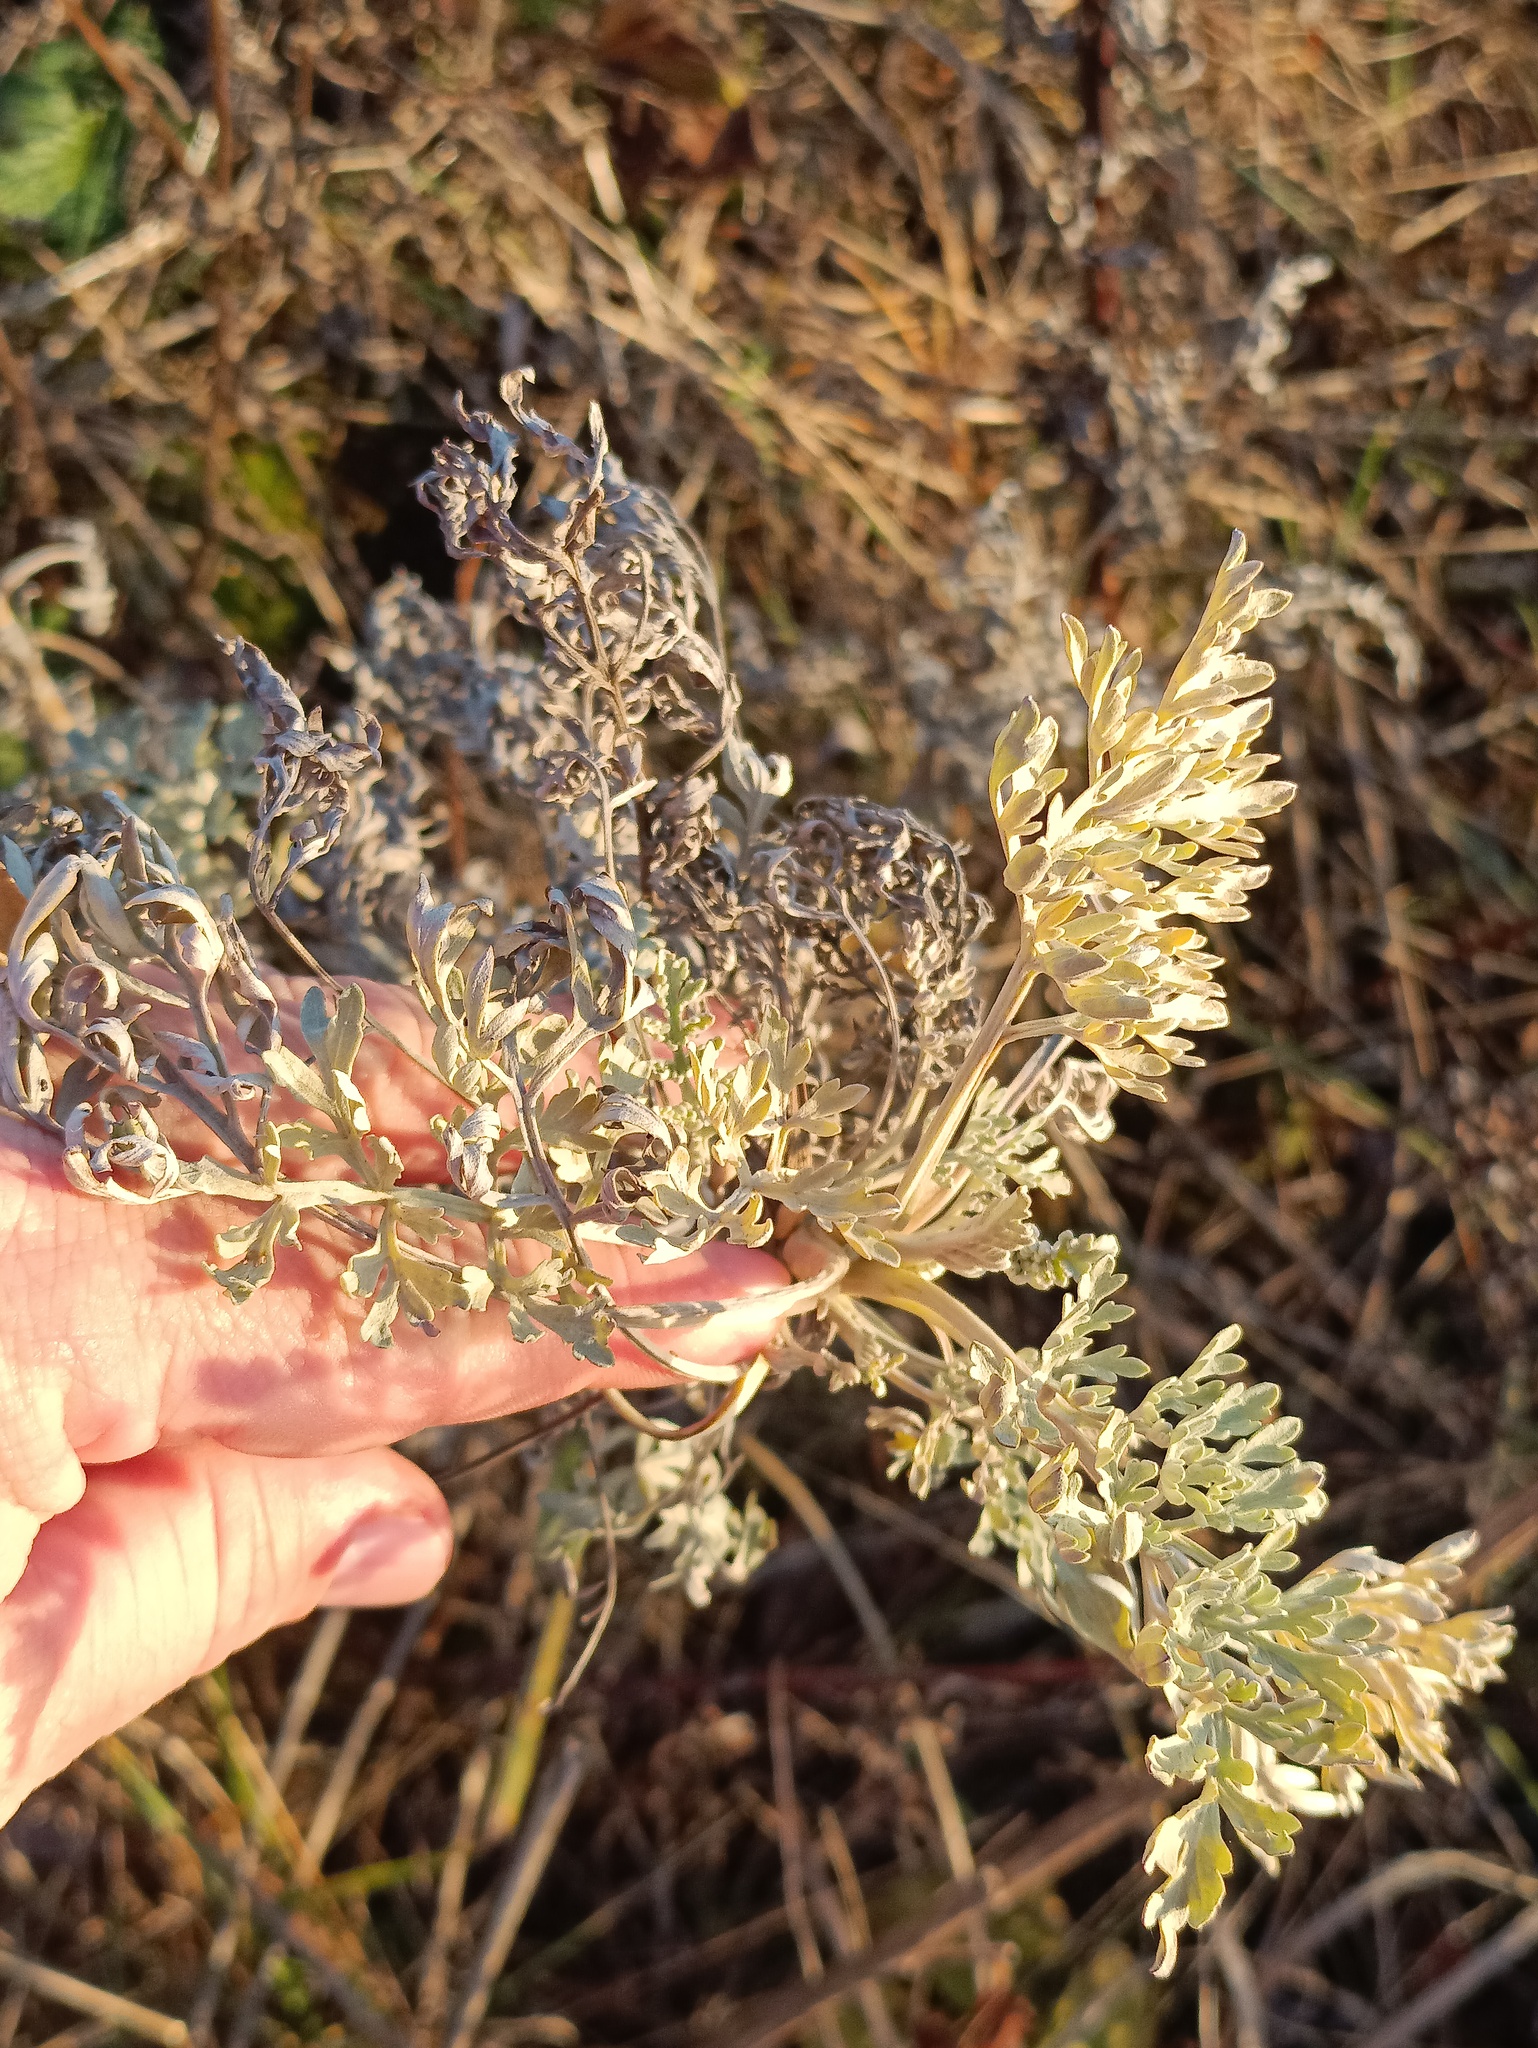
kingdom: Plantae
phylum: Tracheophyta
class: Magnoliopsida
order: Asterales
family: Asteraceae
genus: Artemisia
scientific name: Artemisia absinthium
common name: Wormwood
